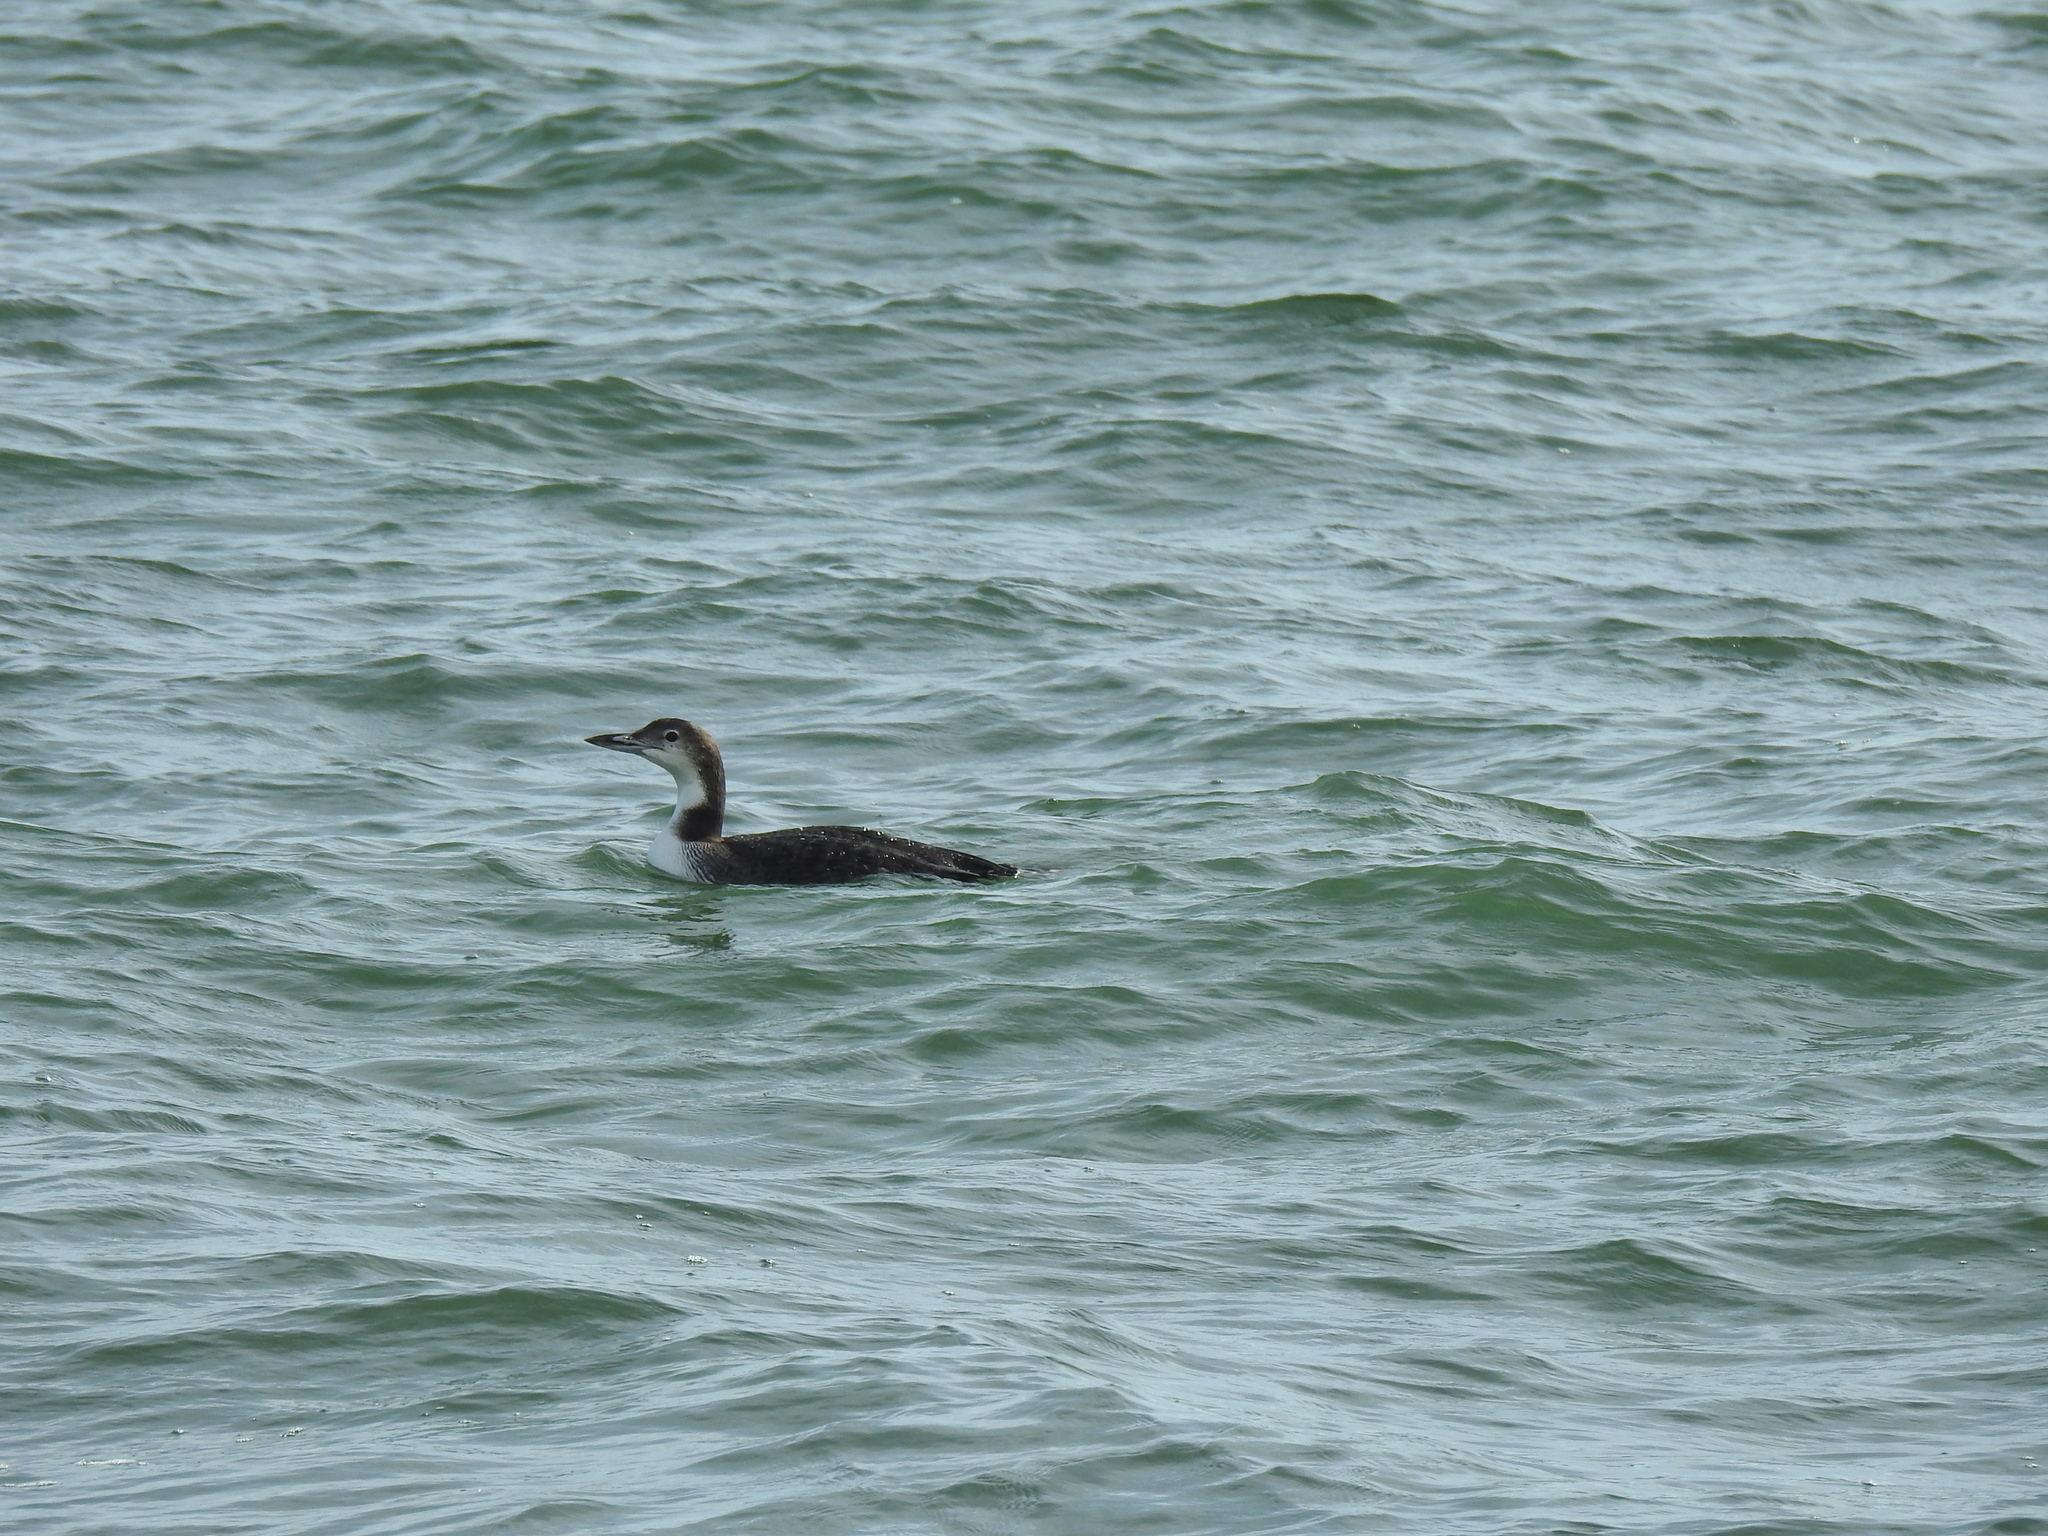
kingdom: Animalia
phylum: Chordata
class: Aves
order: Gaviiformes
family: Gaviidae
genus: Gavia
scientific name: Gavia immer
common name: Common loon
